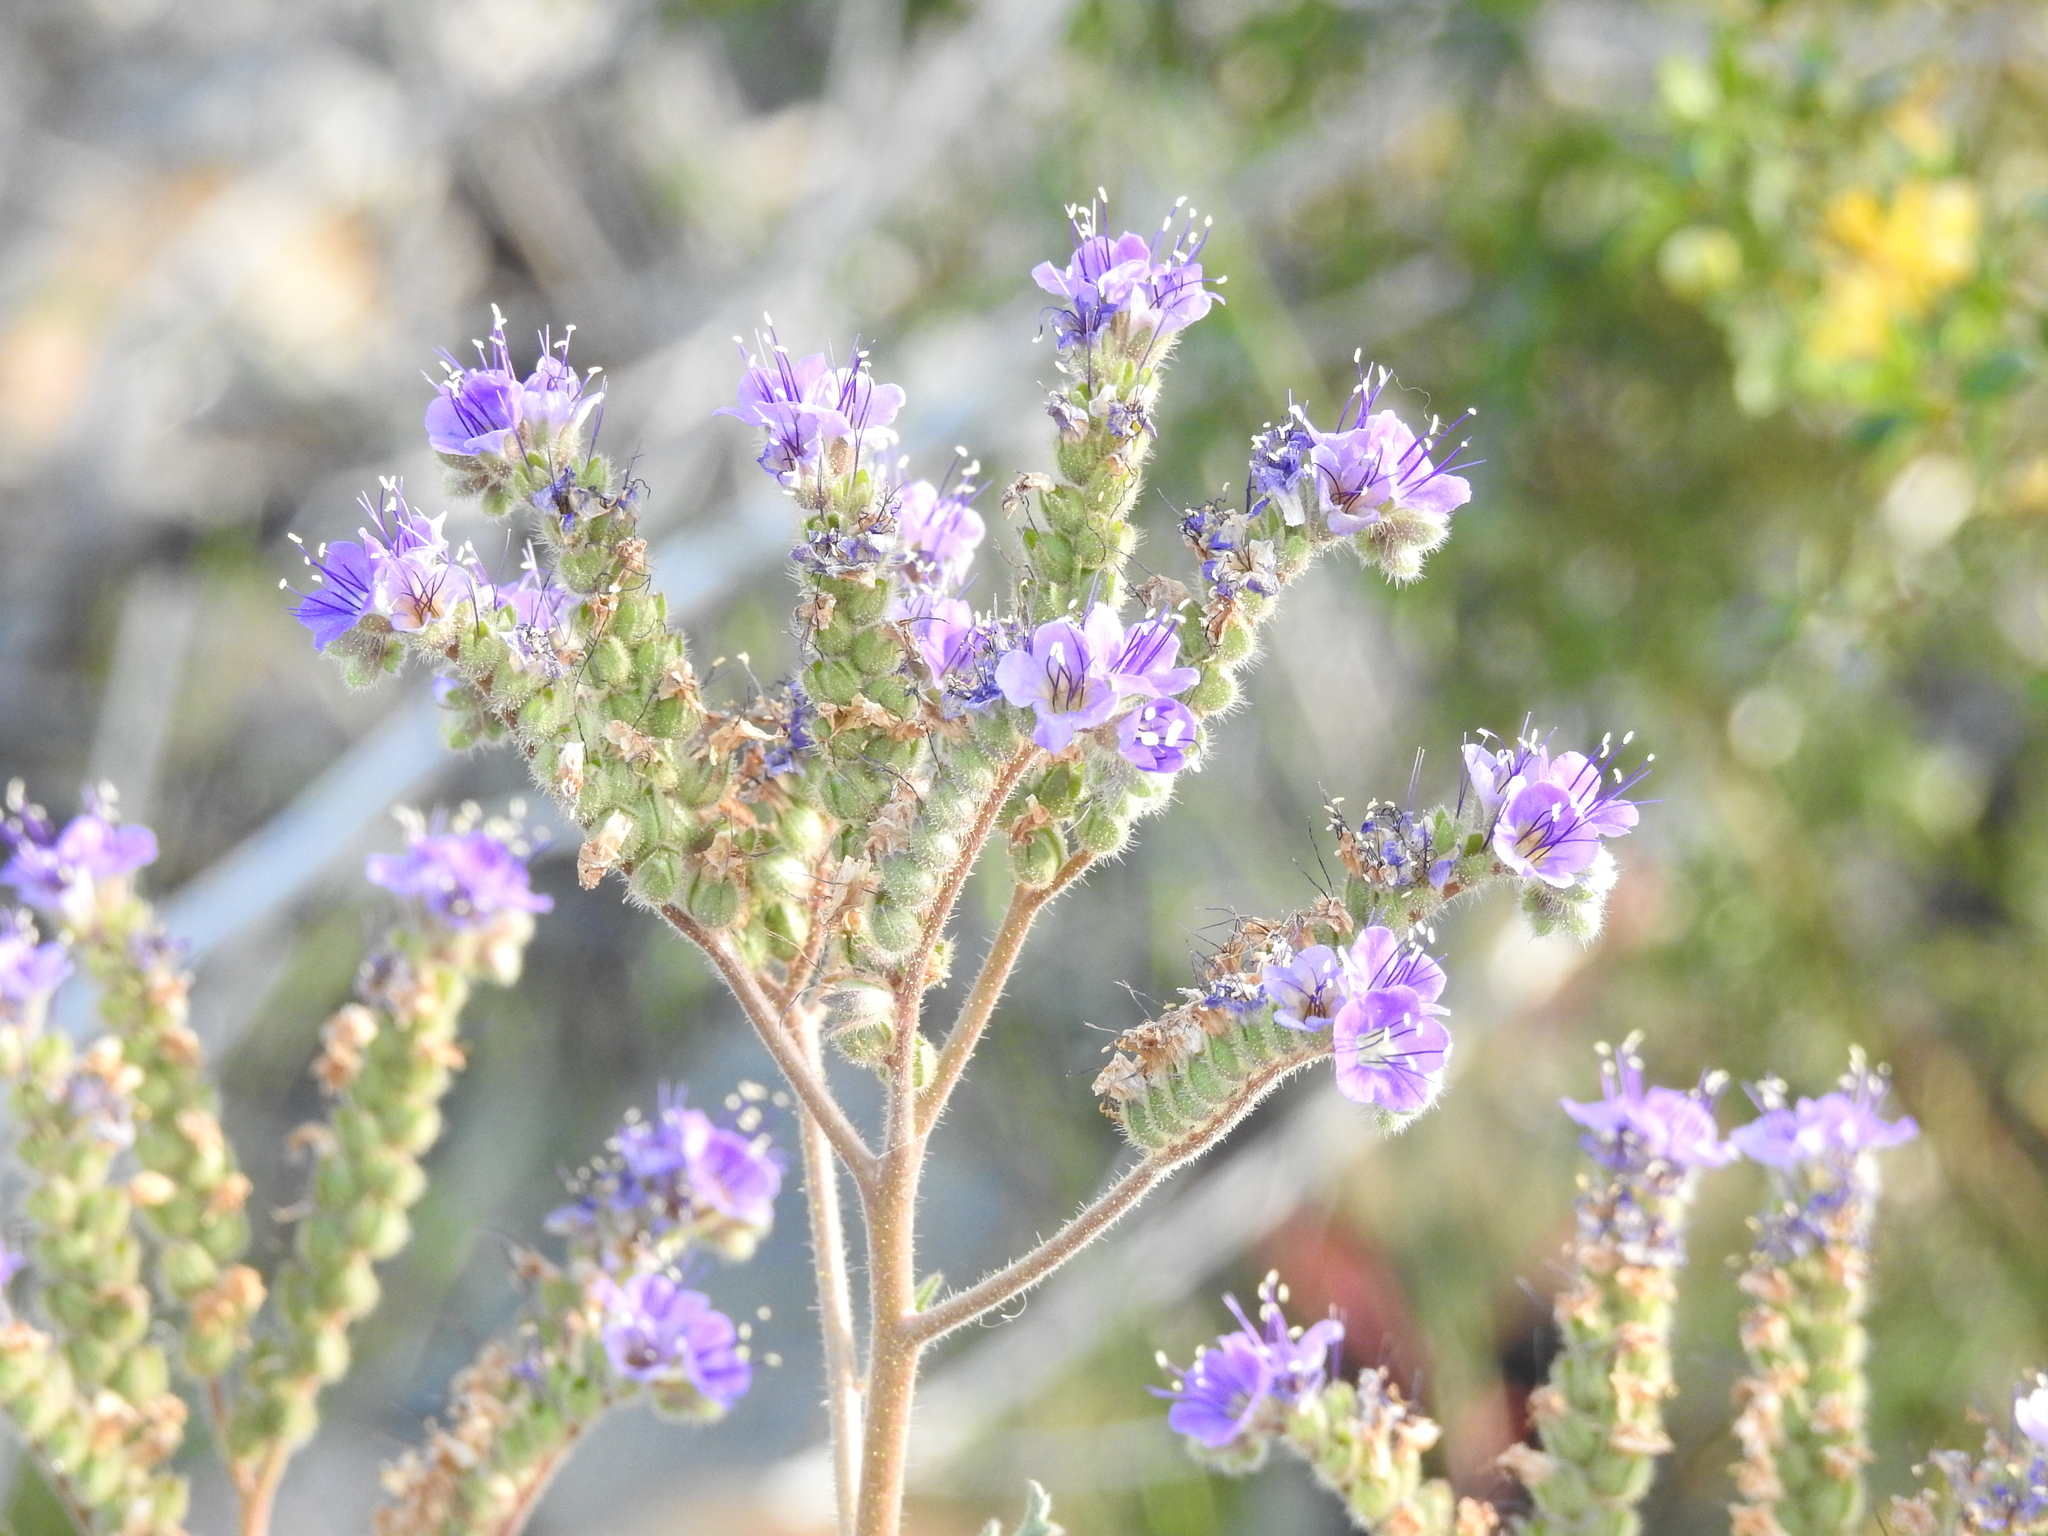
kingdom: Plantae
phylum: Tracheophyta
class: Magnoliopsida
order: Boraginales
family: Hydrophyllaceae
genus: Phacelia
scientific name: Phacelia crenulata
